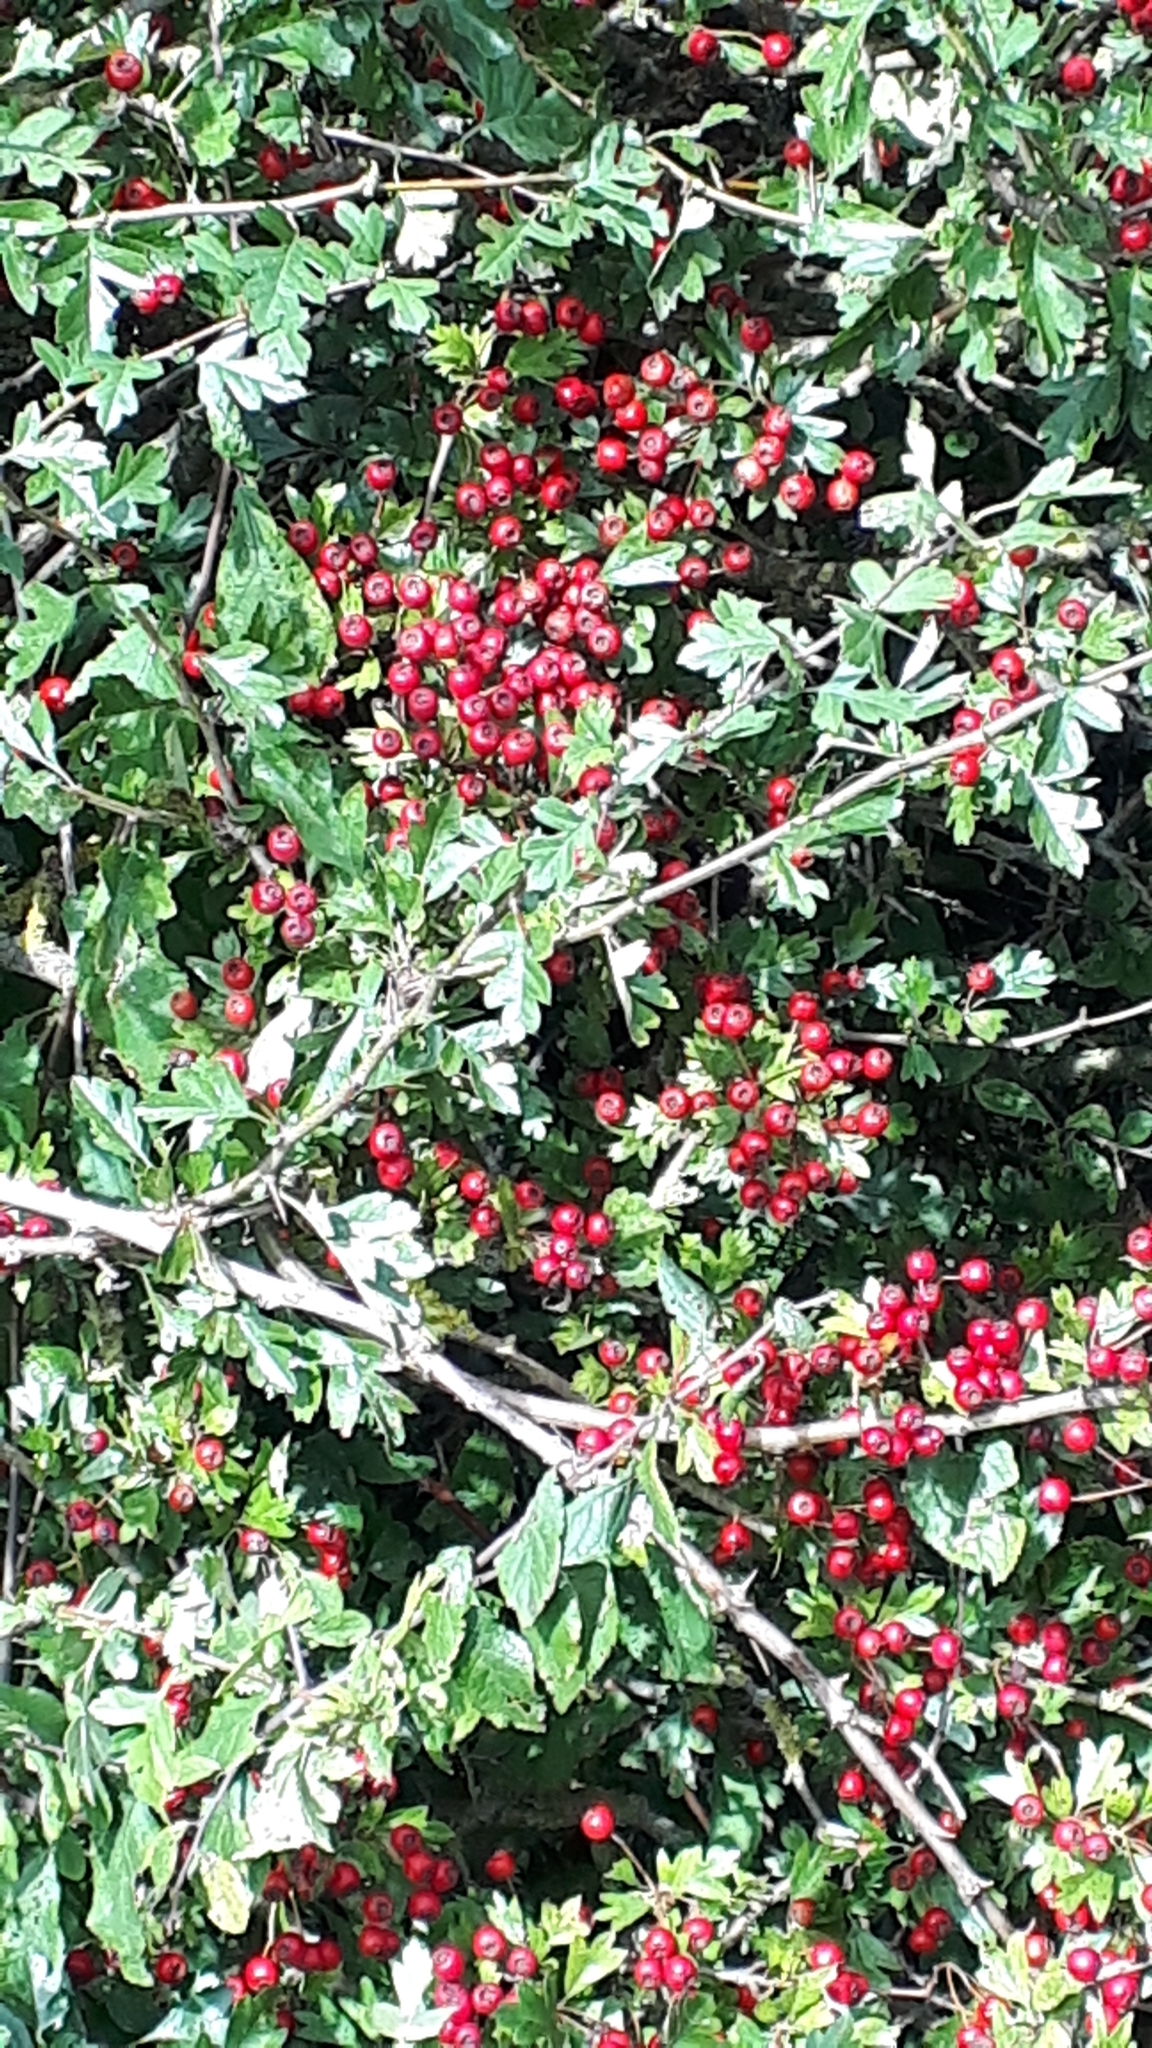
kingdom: Plantae
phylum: Tracheophyta
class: Magnoliopsida
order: Rosales
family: Rosaceae
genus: Crataegus
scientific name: Crataegus monogyna
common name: Hawthorn
